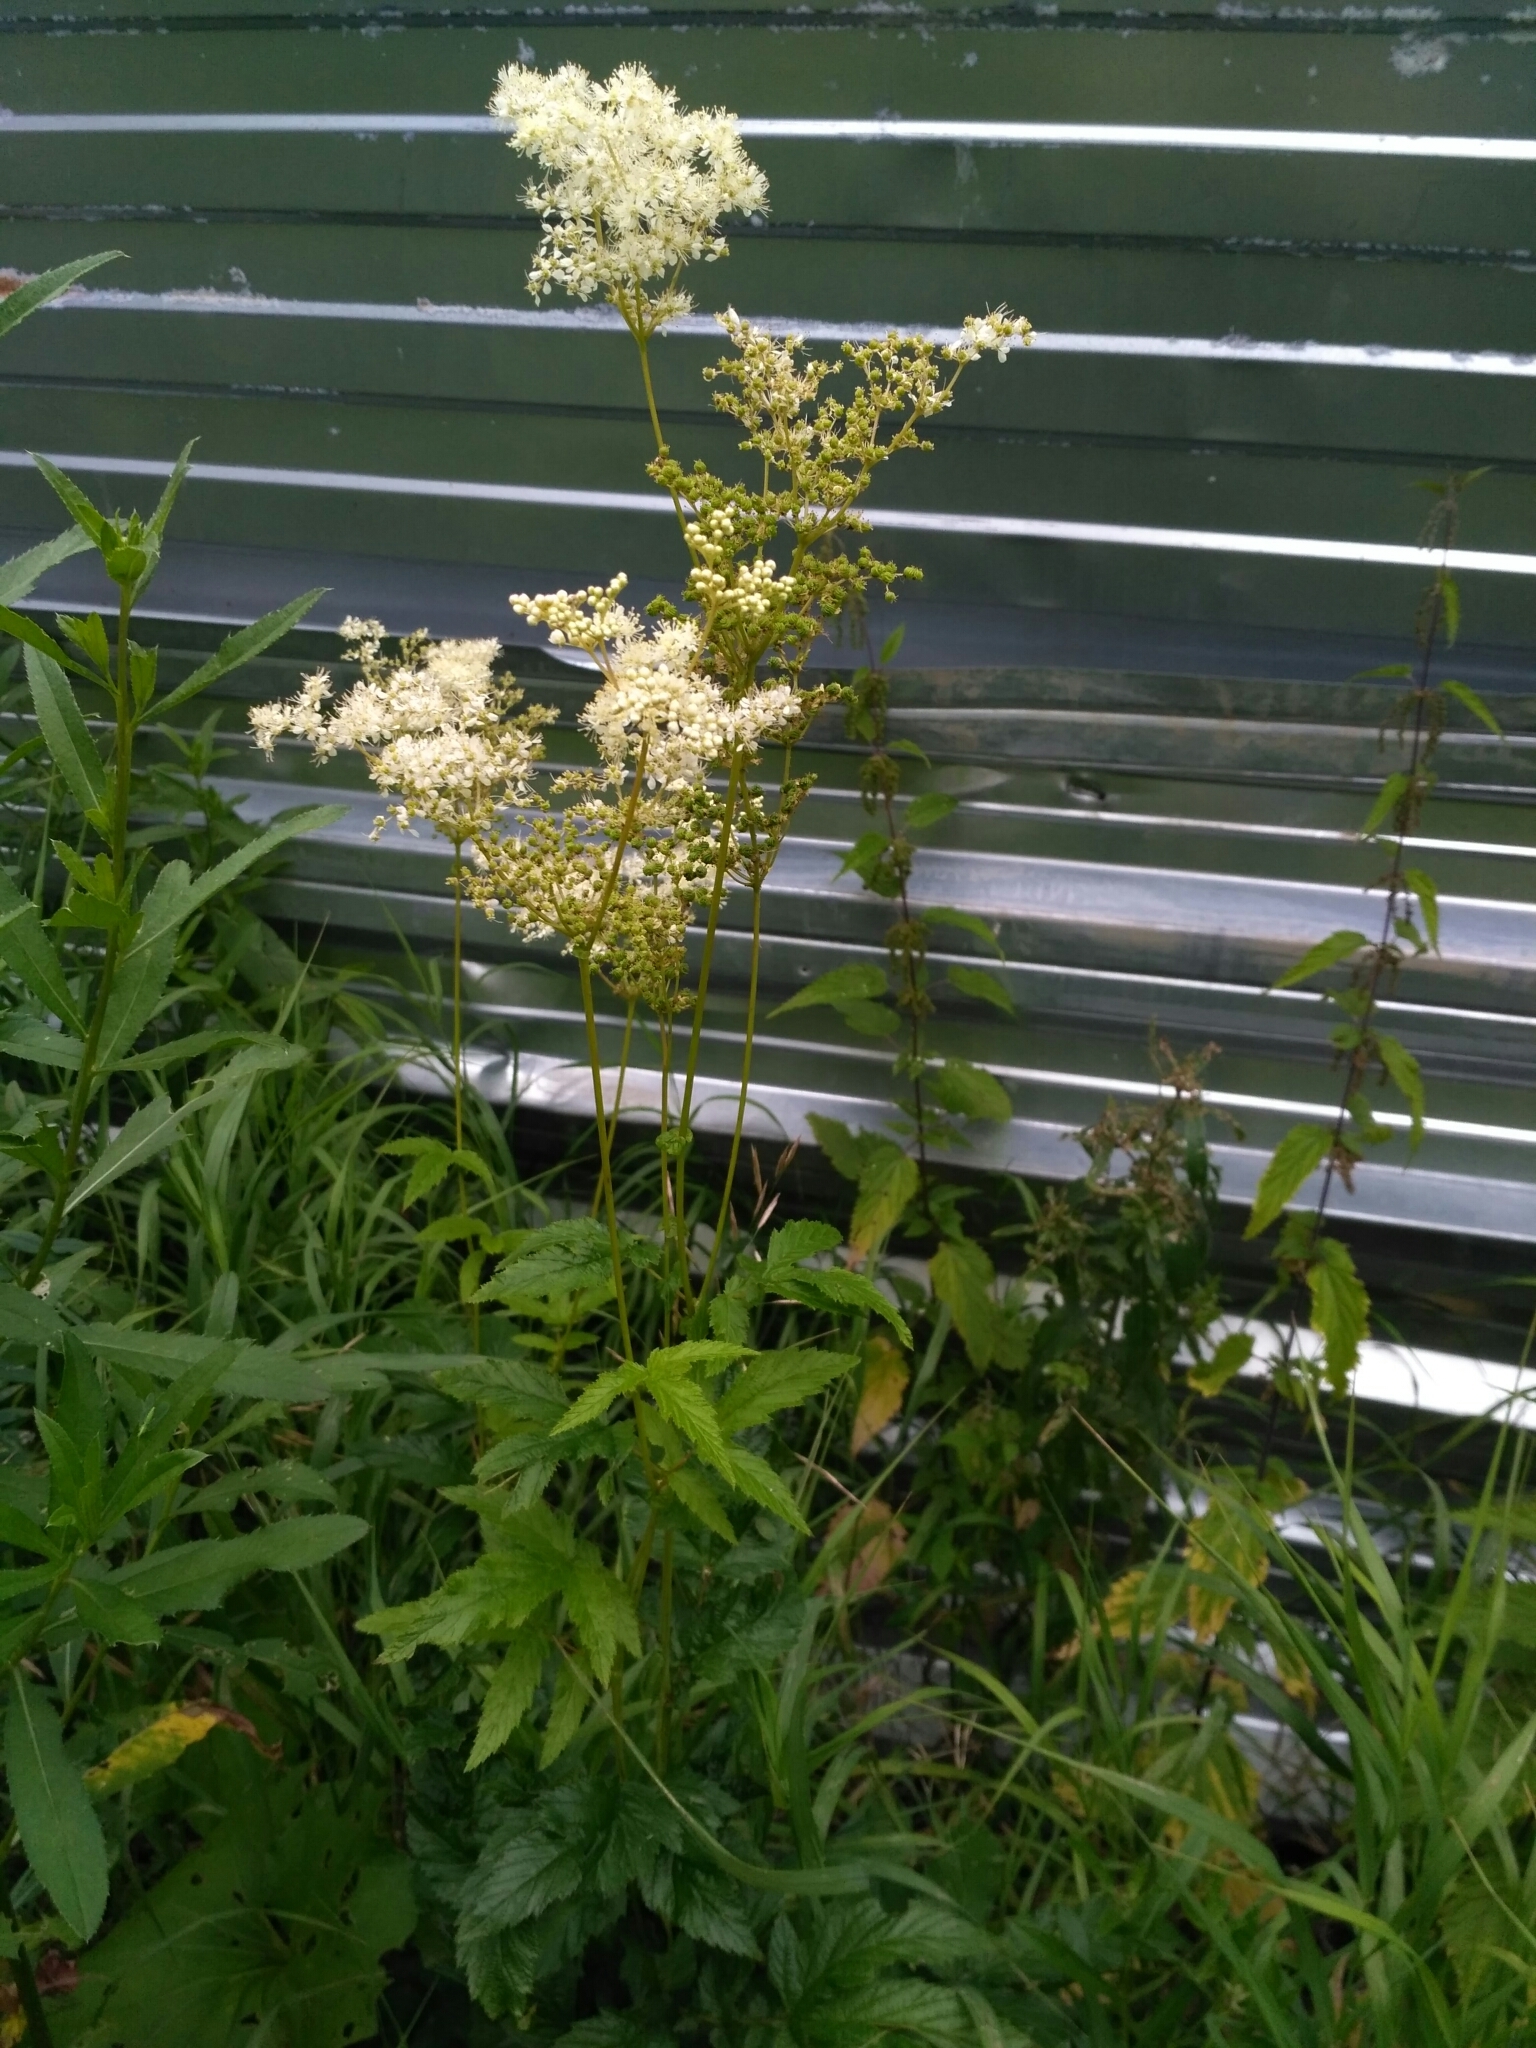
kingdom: Plantae
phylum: Tracheophyta
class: Magnoliopsida
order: Rosales
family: Rosaceae
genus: Filipendula
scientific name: Filipendula ulmaria
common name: Meadowsweet
